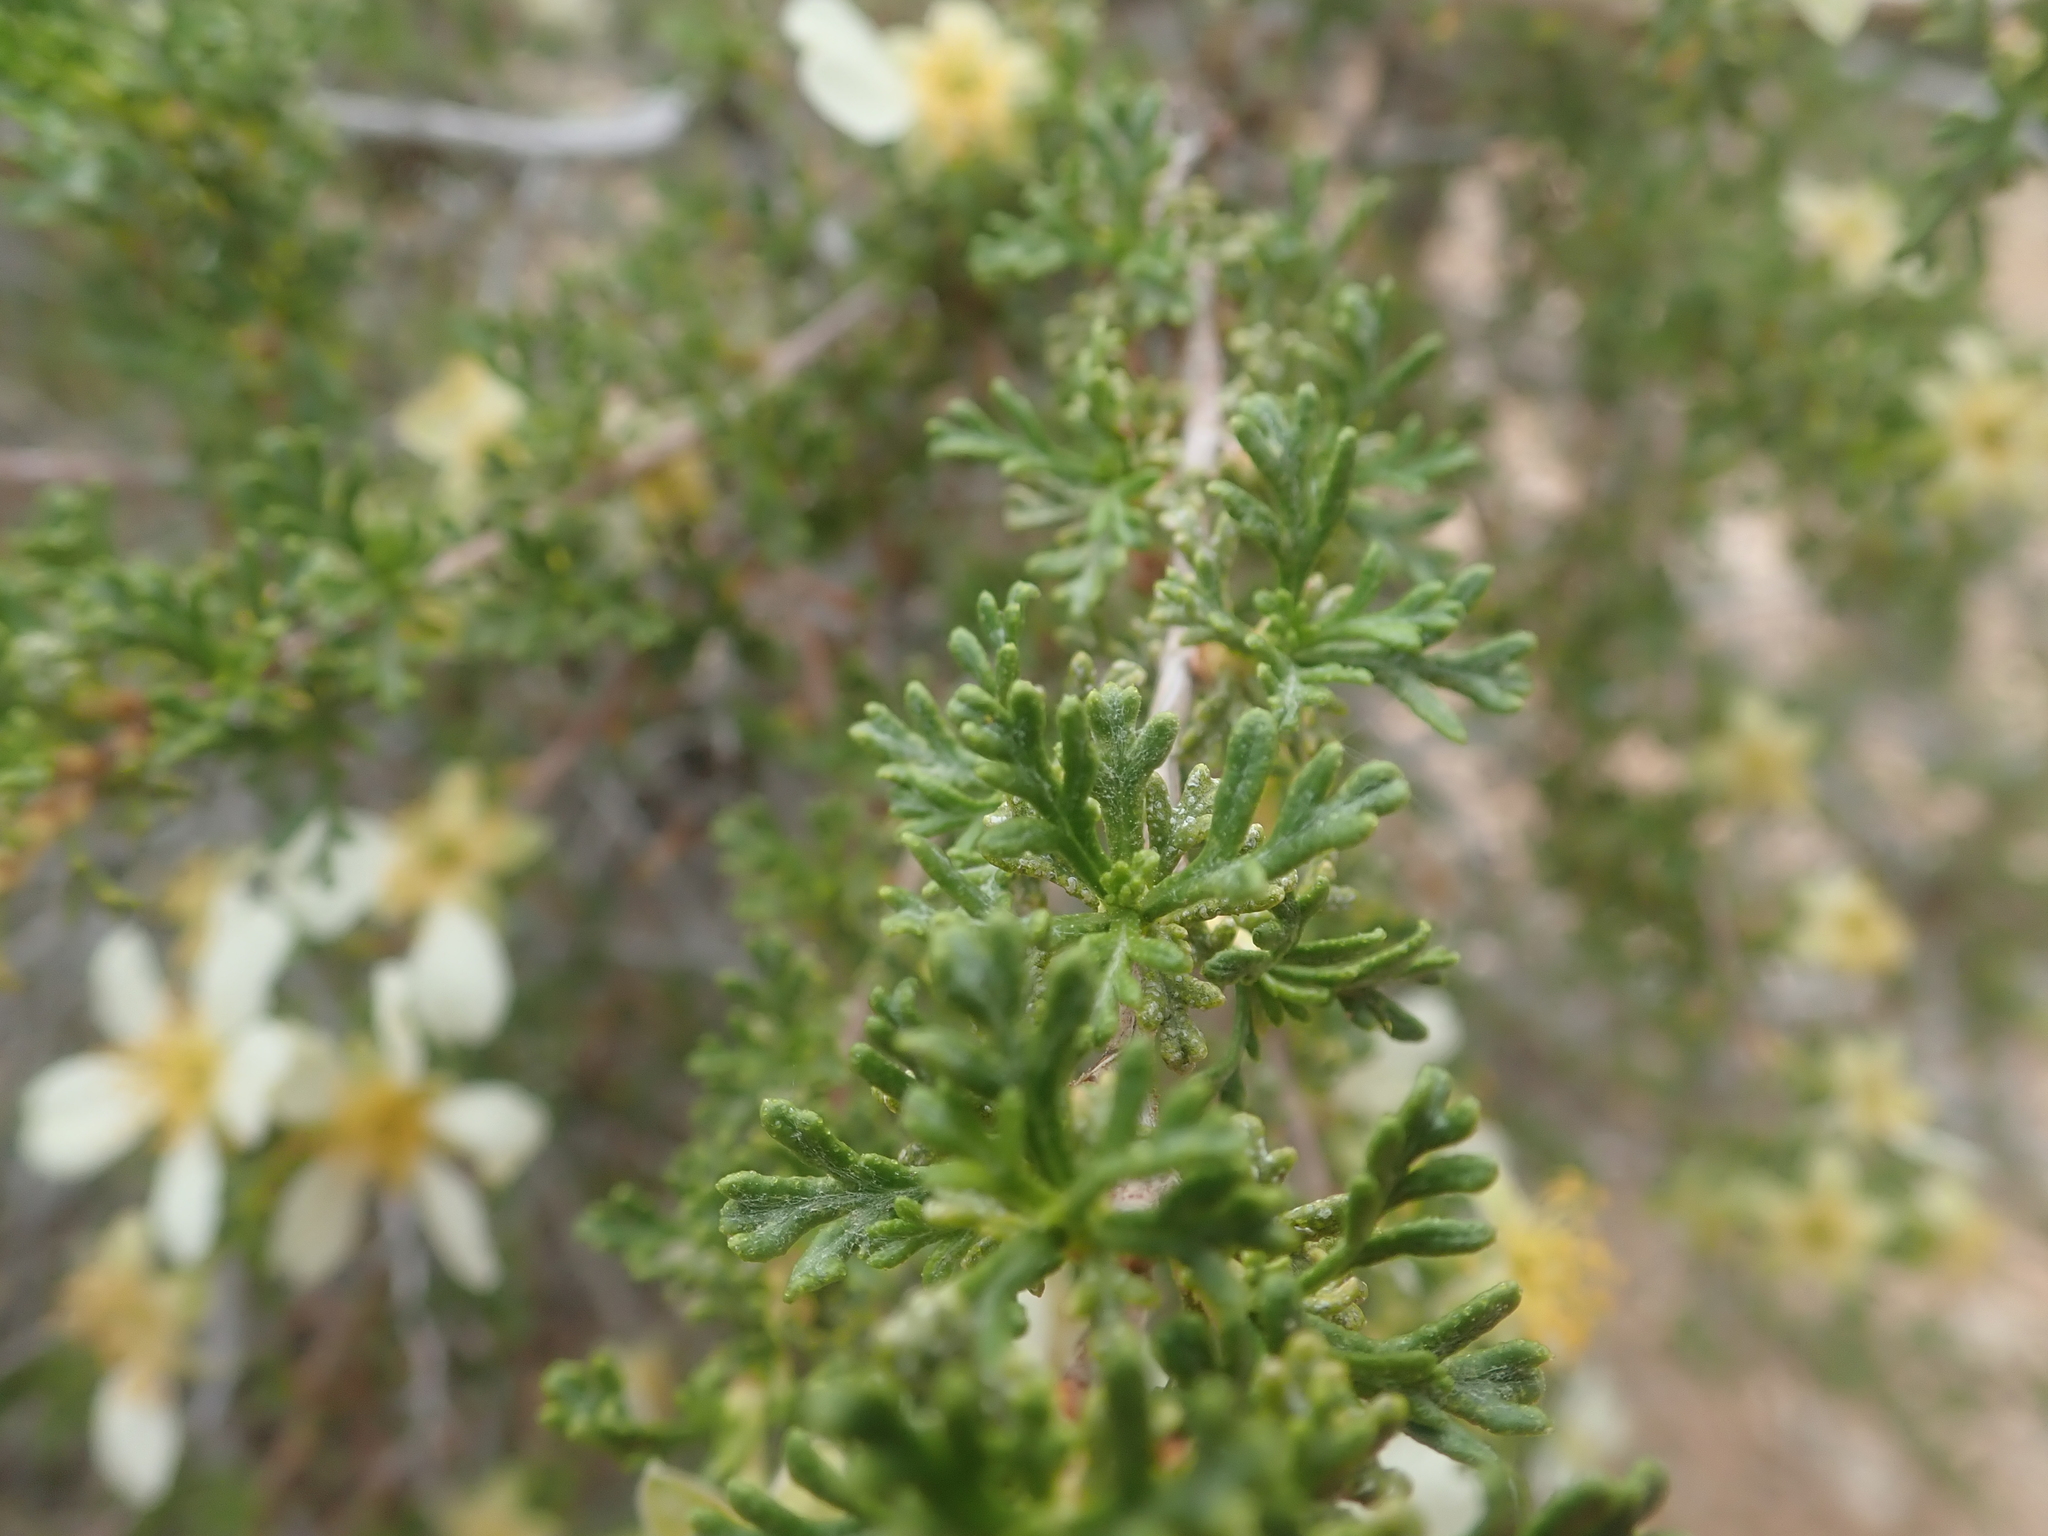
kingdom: Plantae
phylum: Tracheophyta
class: Magnoliopsida
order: Rosales
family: Rosaceae
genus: Purshia
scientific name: Purshia stansburiana
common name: Stansbury's cliffrose
